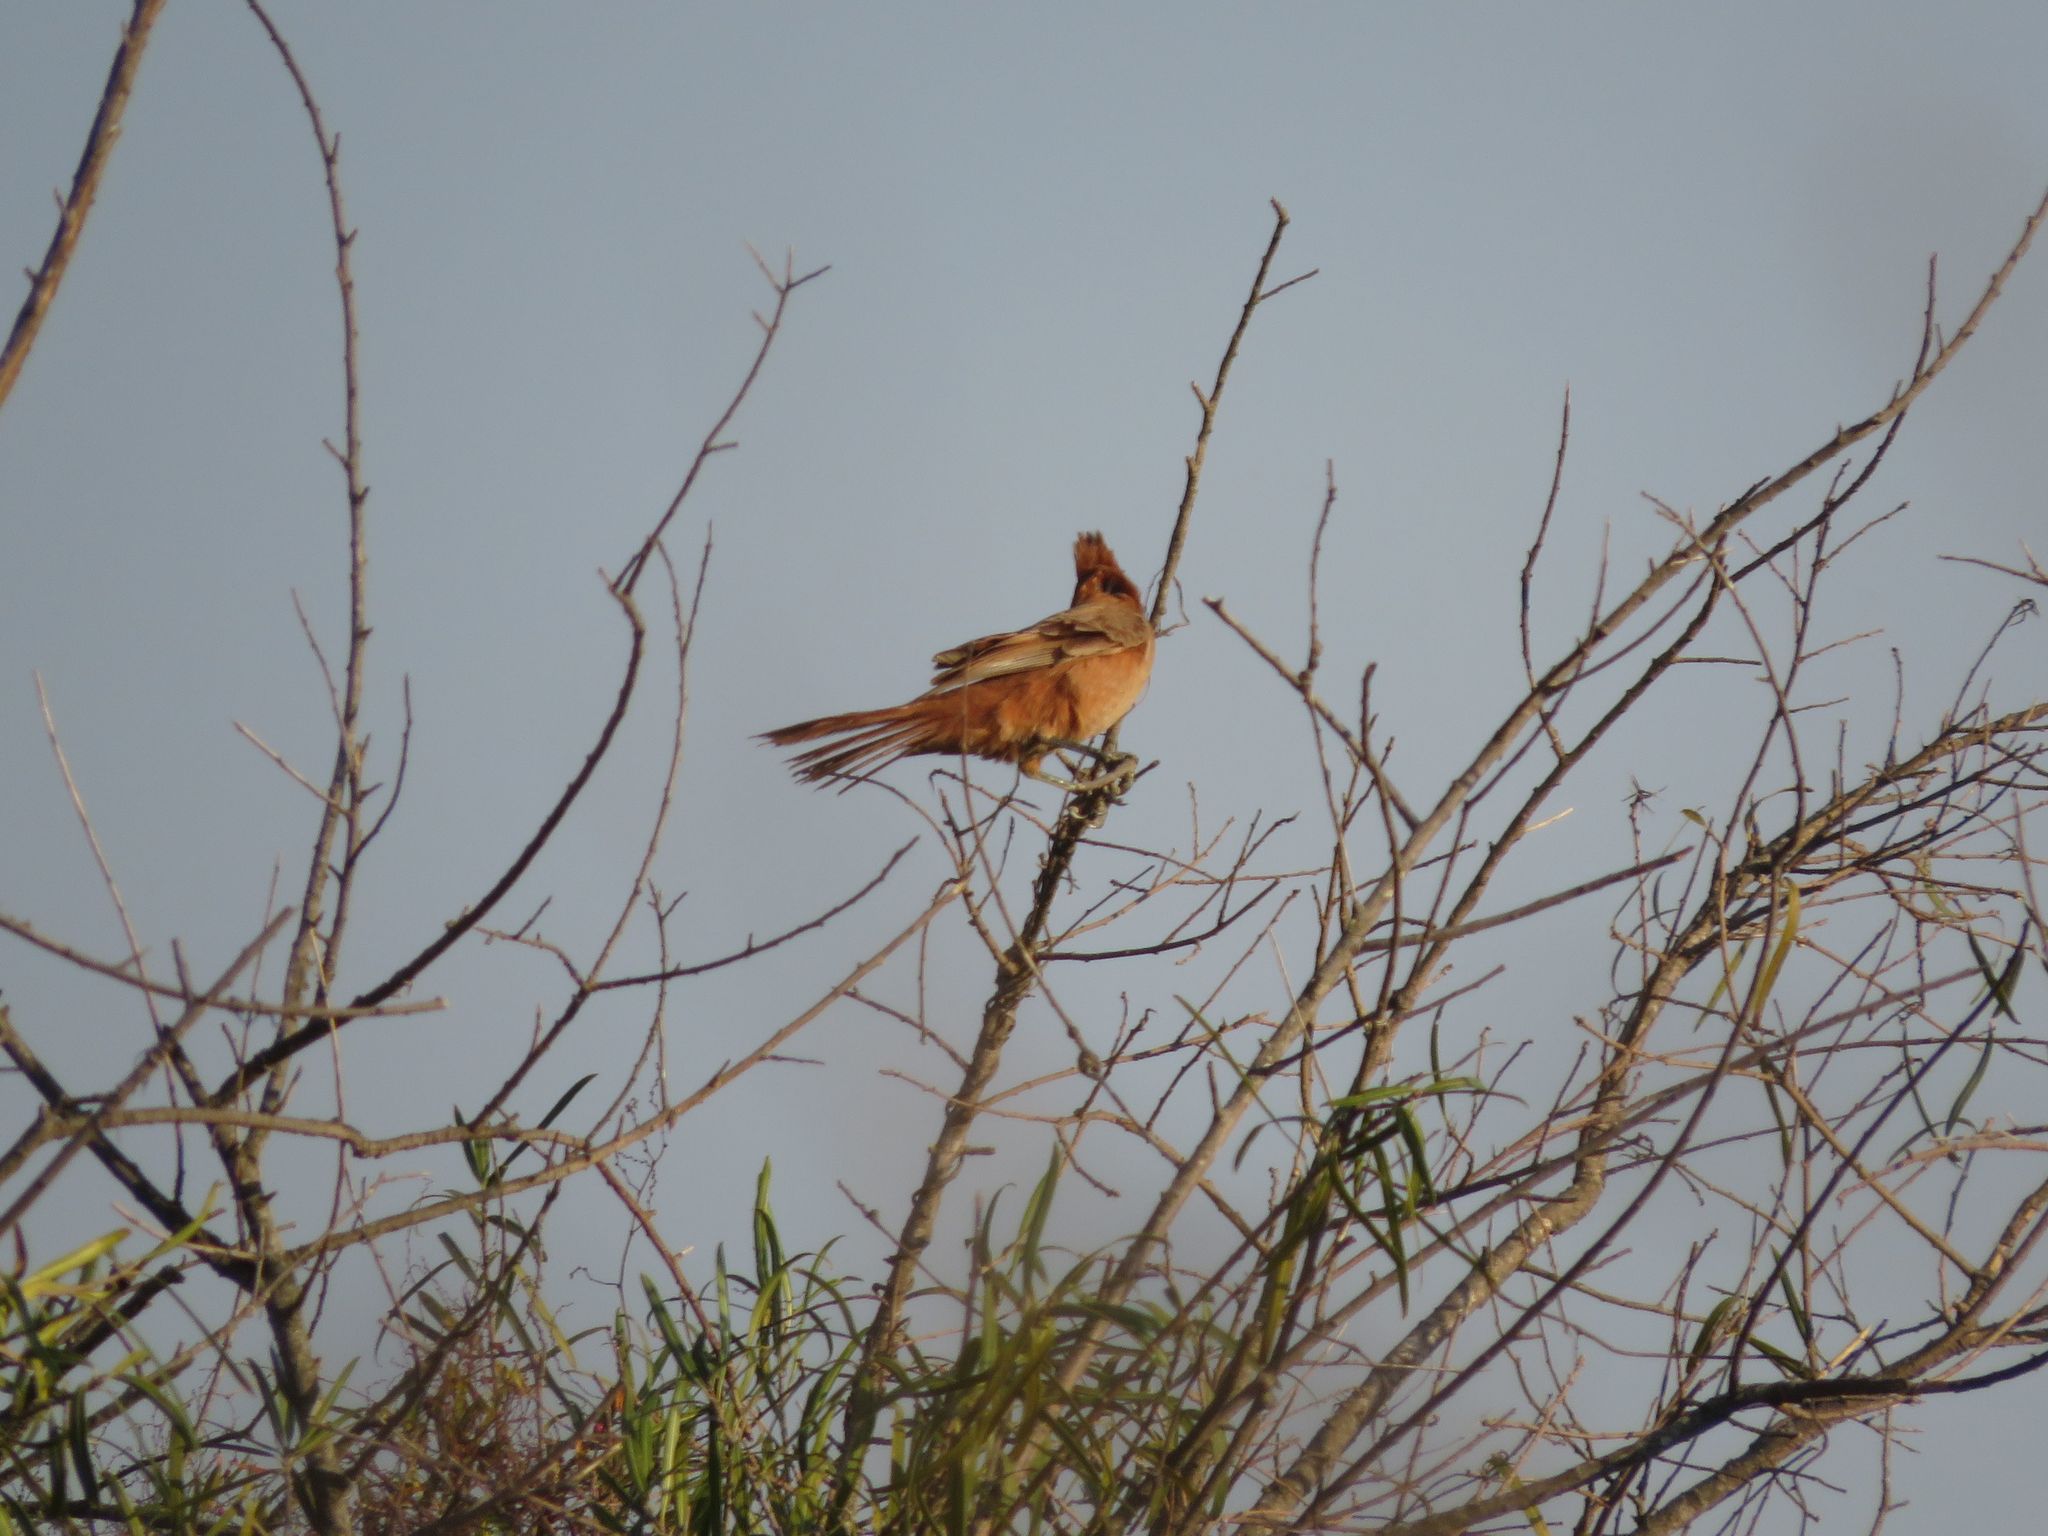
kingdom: Animalia
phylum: Chordata
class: Aves
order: Passeriformes
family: Furnariidae
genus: Pseudoseisura
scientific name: Pseudoseisura lophotes
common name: Brown cacholote
